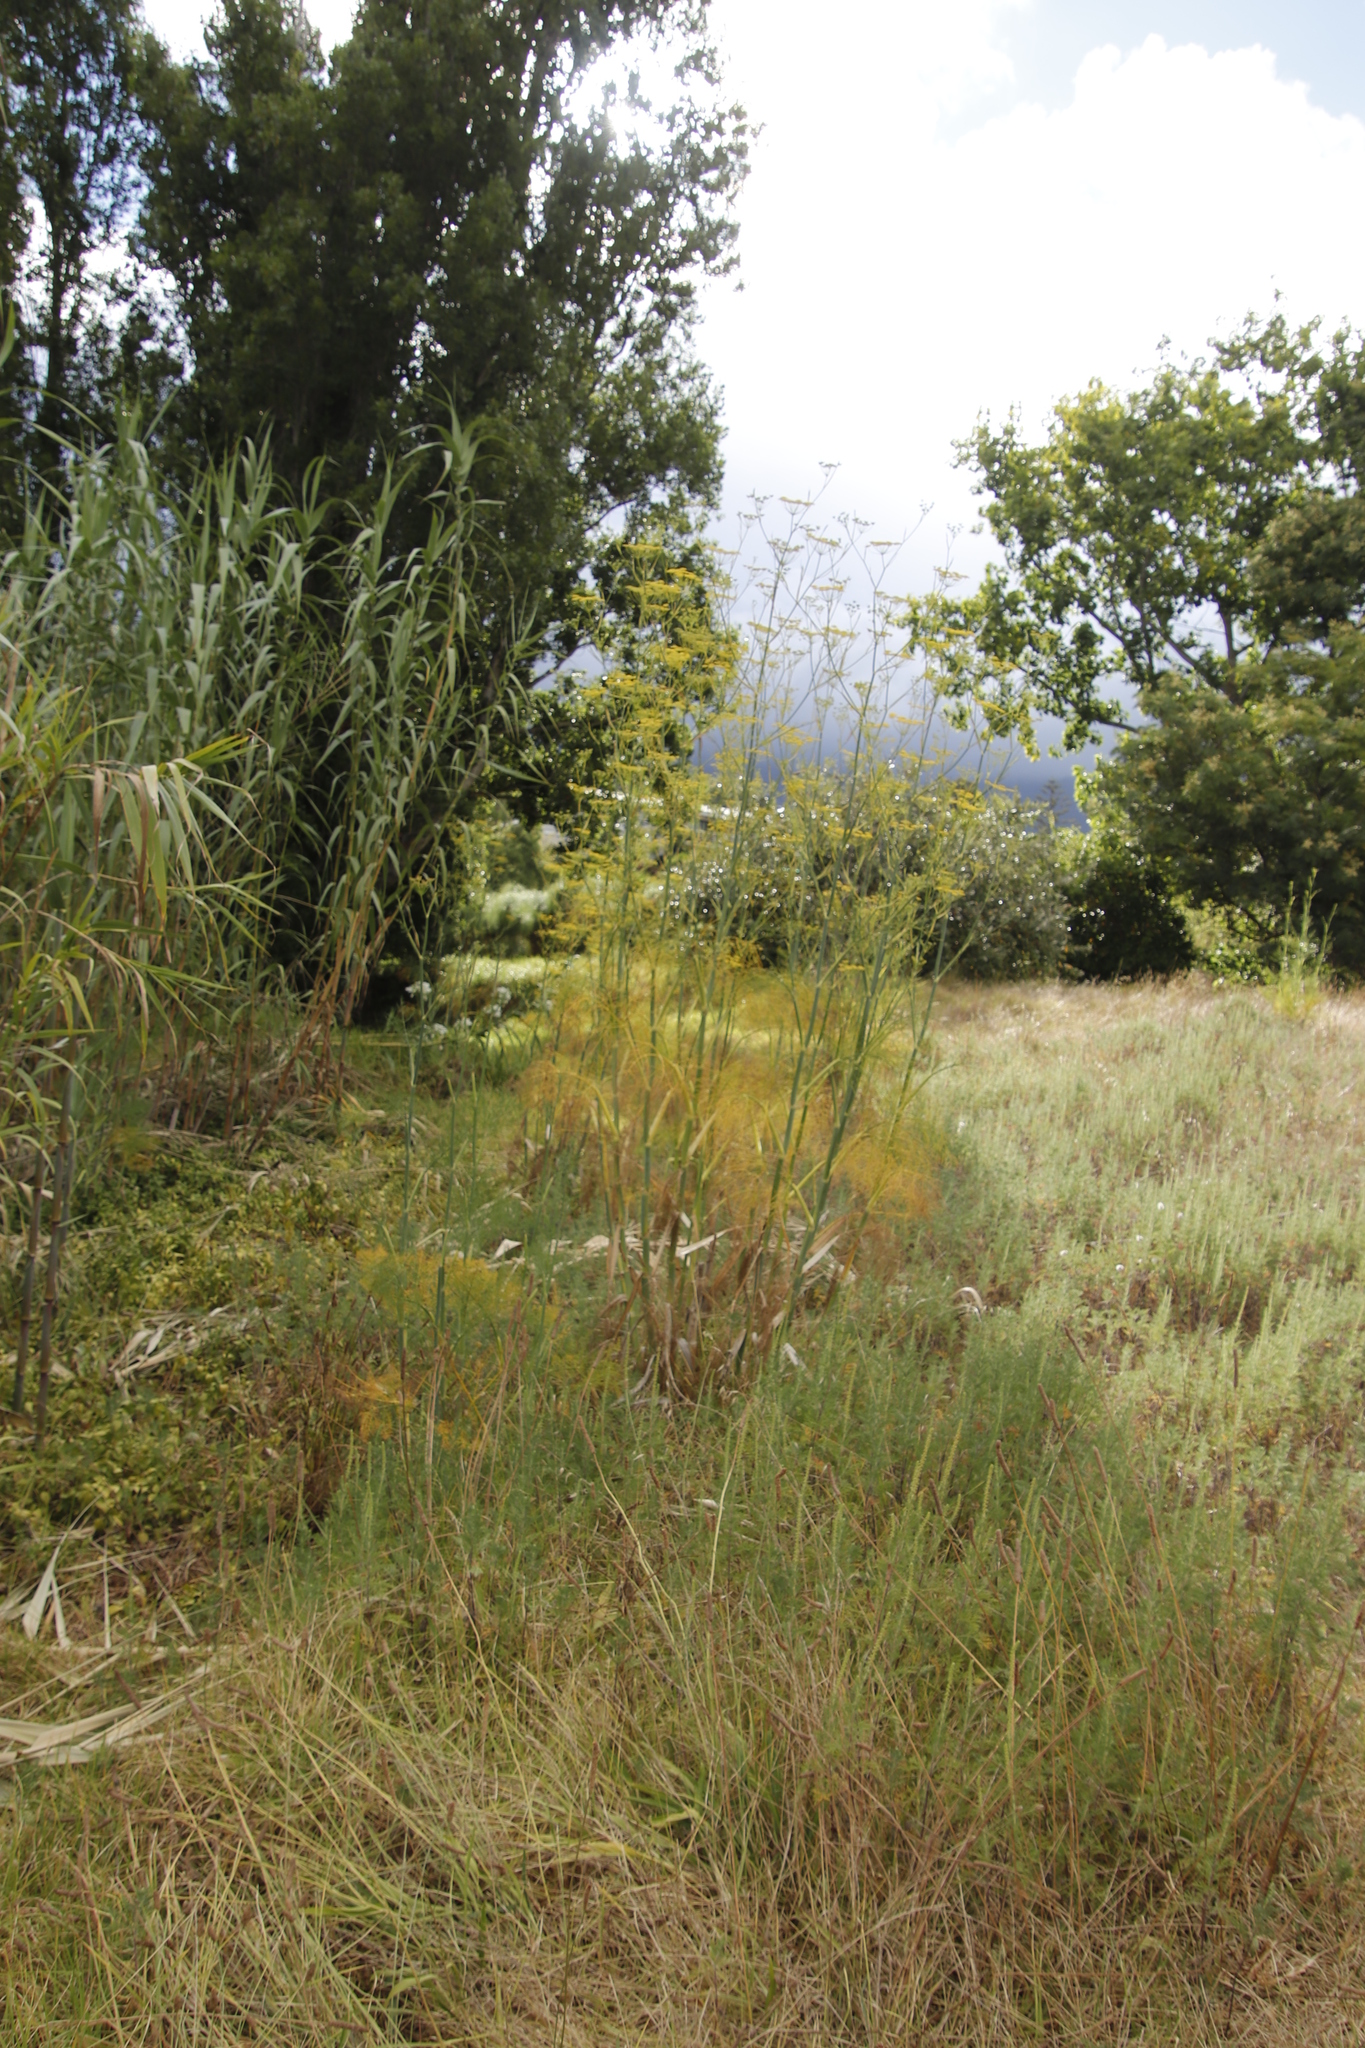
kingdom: Plantae
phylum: Tracheophyta
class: Magnoliopsida
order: Apiales
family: Apiaceae
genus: Foeniculum
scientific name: Foeniculum vulgare
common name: Fennel
